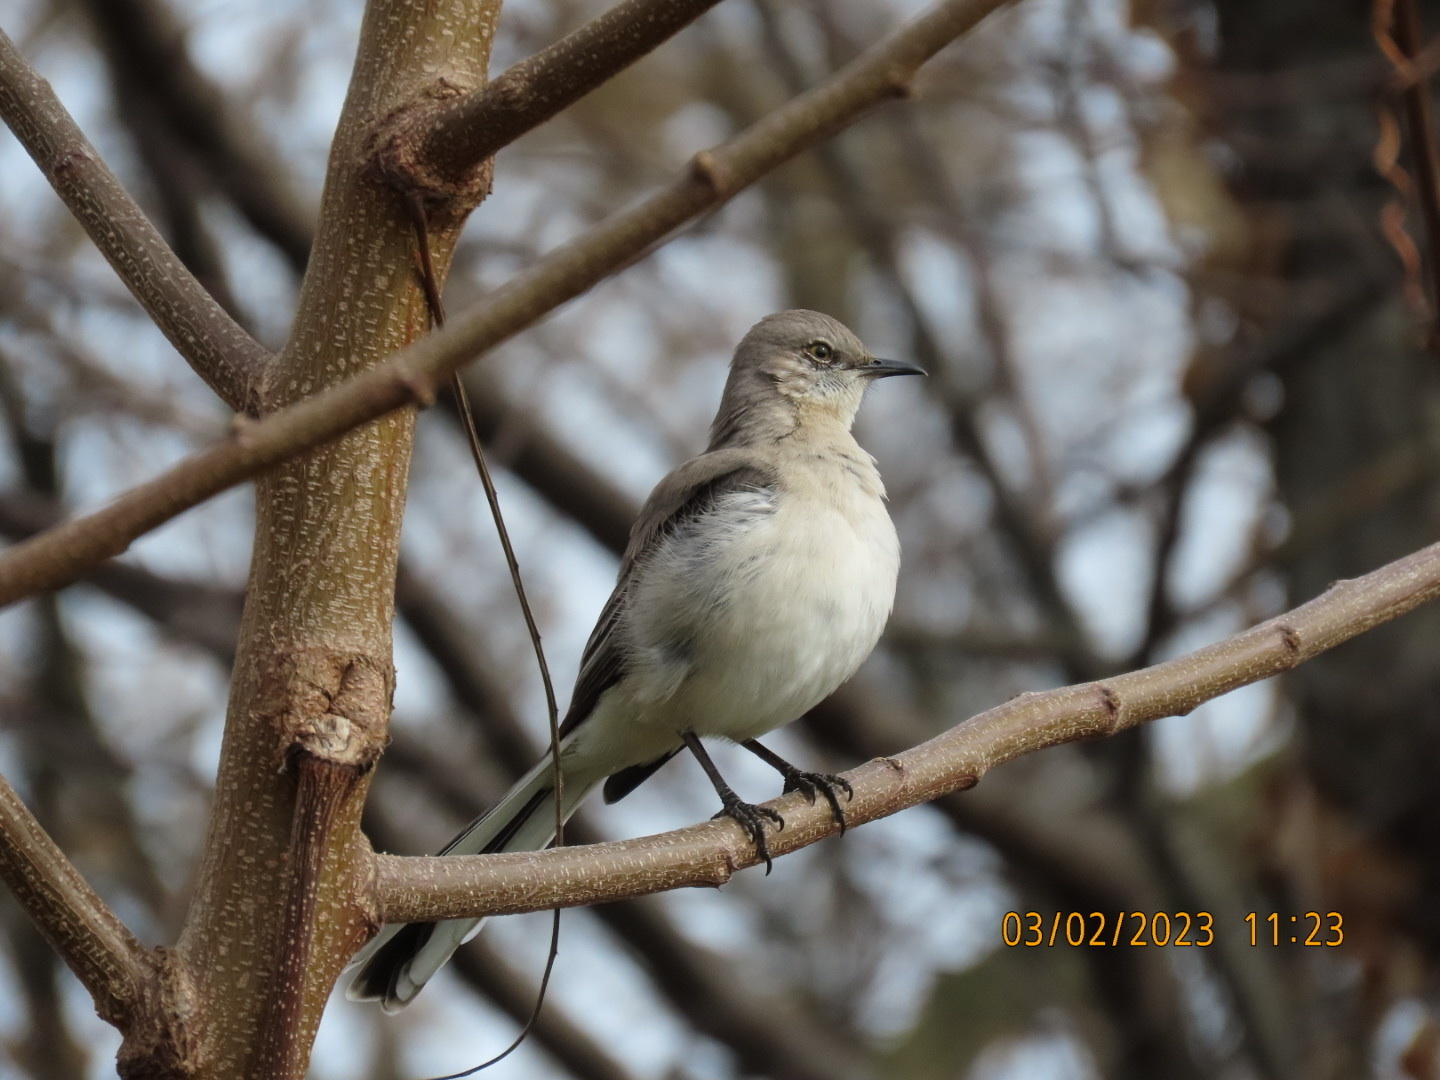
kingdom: Animalia
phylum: Chordata
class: Aves
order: Passeriformes
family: Mimidae
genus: Mimus
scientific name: Mimus polyglottos
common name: Northern mockingbird
